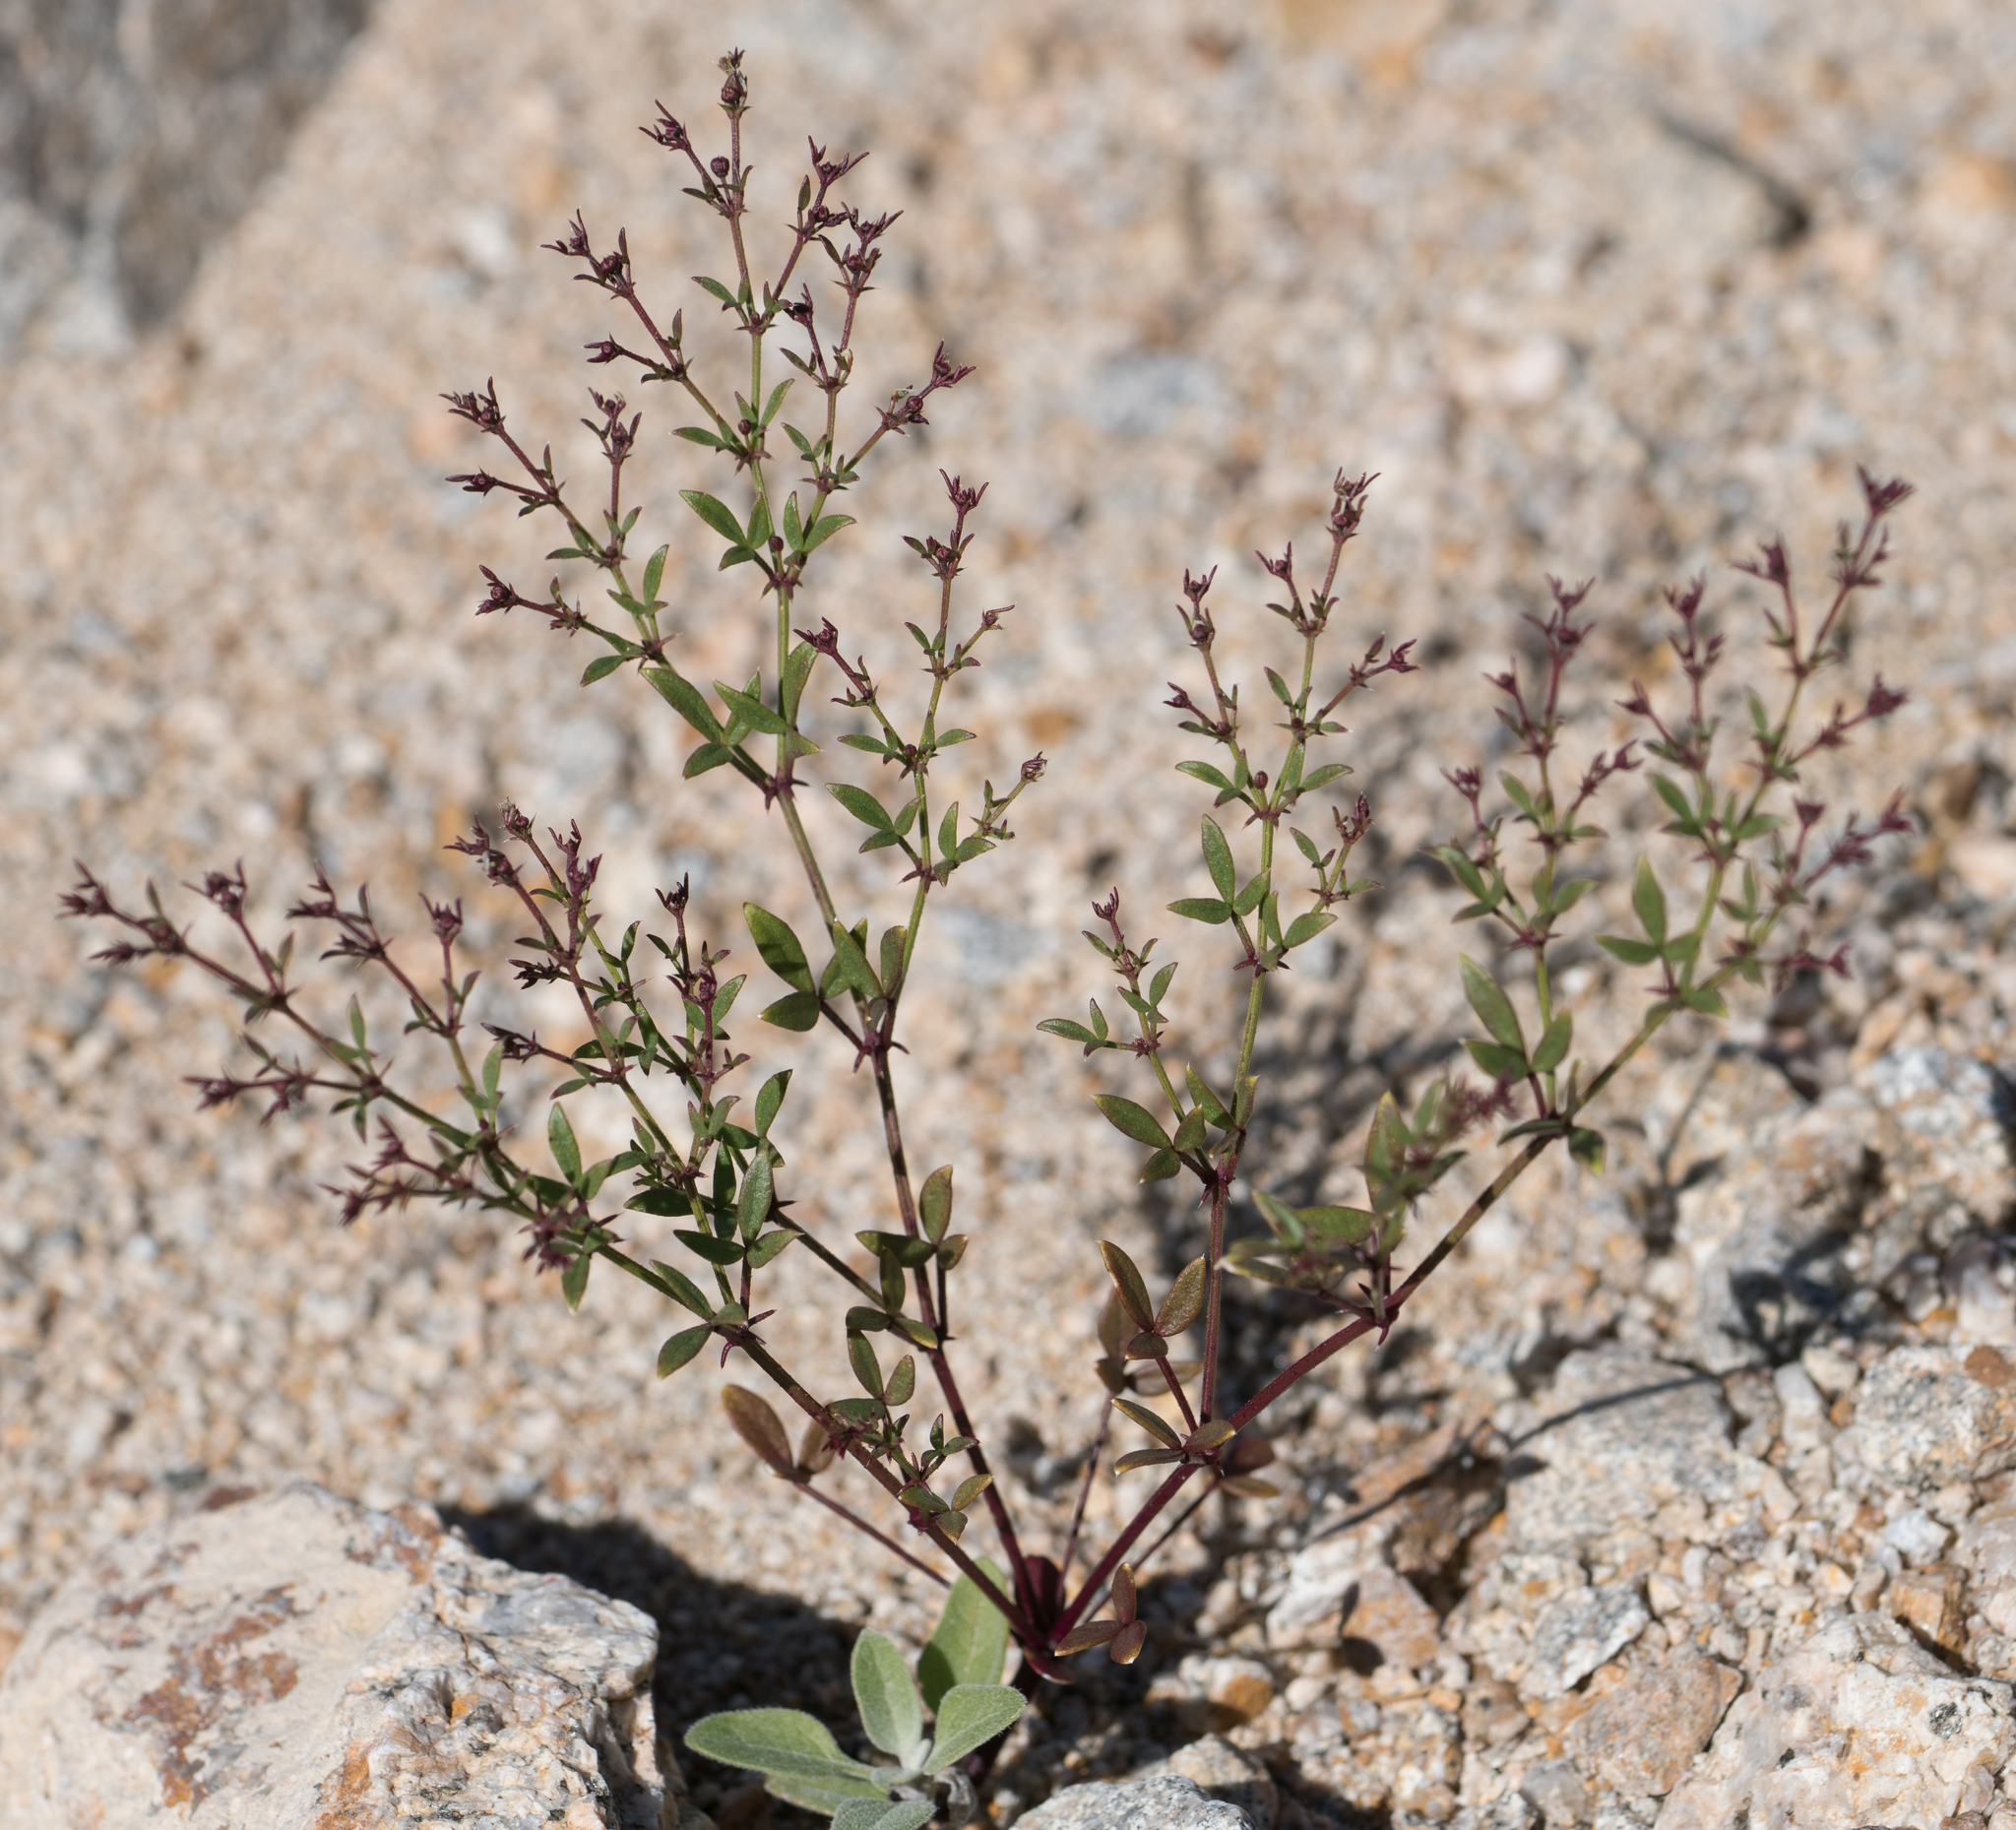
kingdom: Plantae
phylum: Tracheophyta
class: Magnoliopsida
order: Zygophyllales
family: Zygophyllaceae
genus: Fagonia
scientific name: Fagonia laevis
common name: California fagonbush
